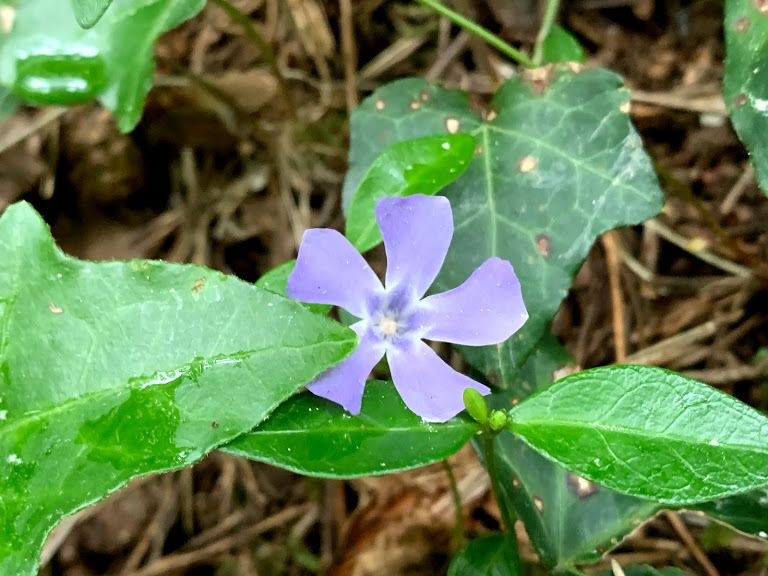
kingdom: Plantae
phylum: Tracheophyta
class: Magnoliopsida
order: Gentianales
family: Apocynaceae
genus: Vinca
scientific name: Vinca minor
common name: Lesser periwinkle
